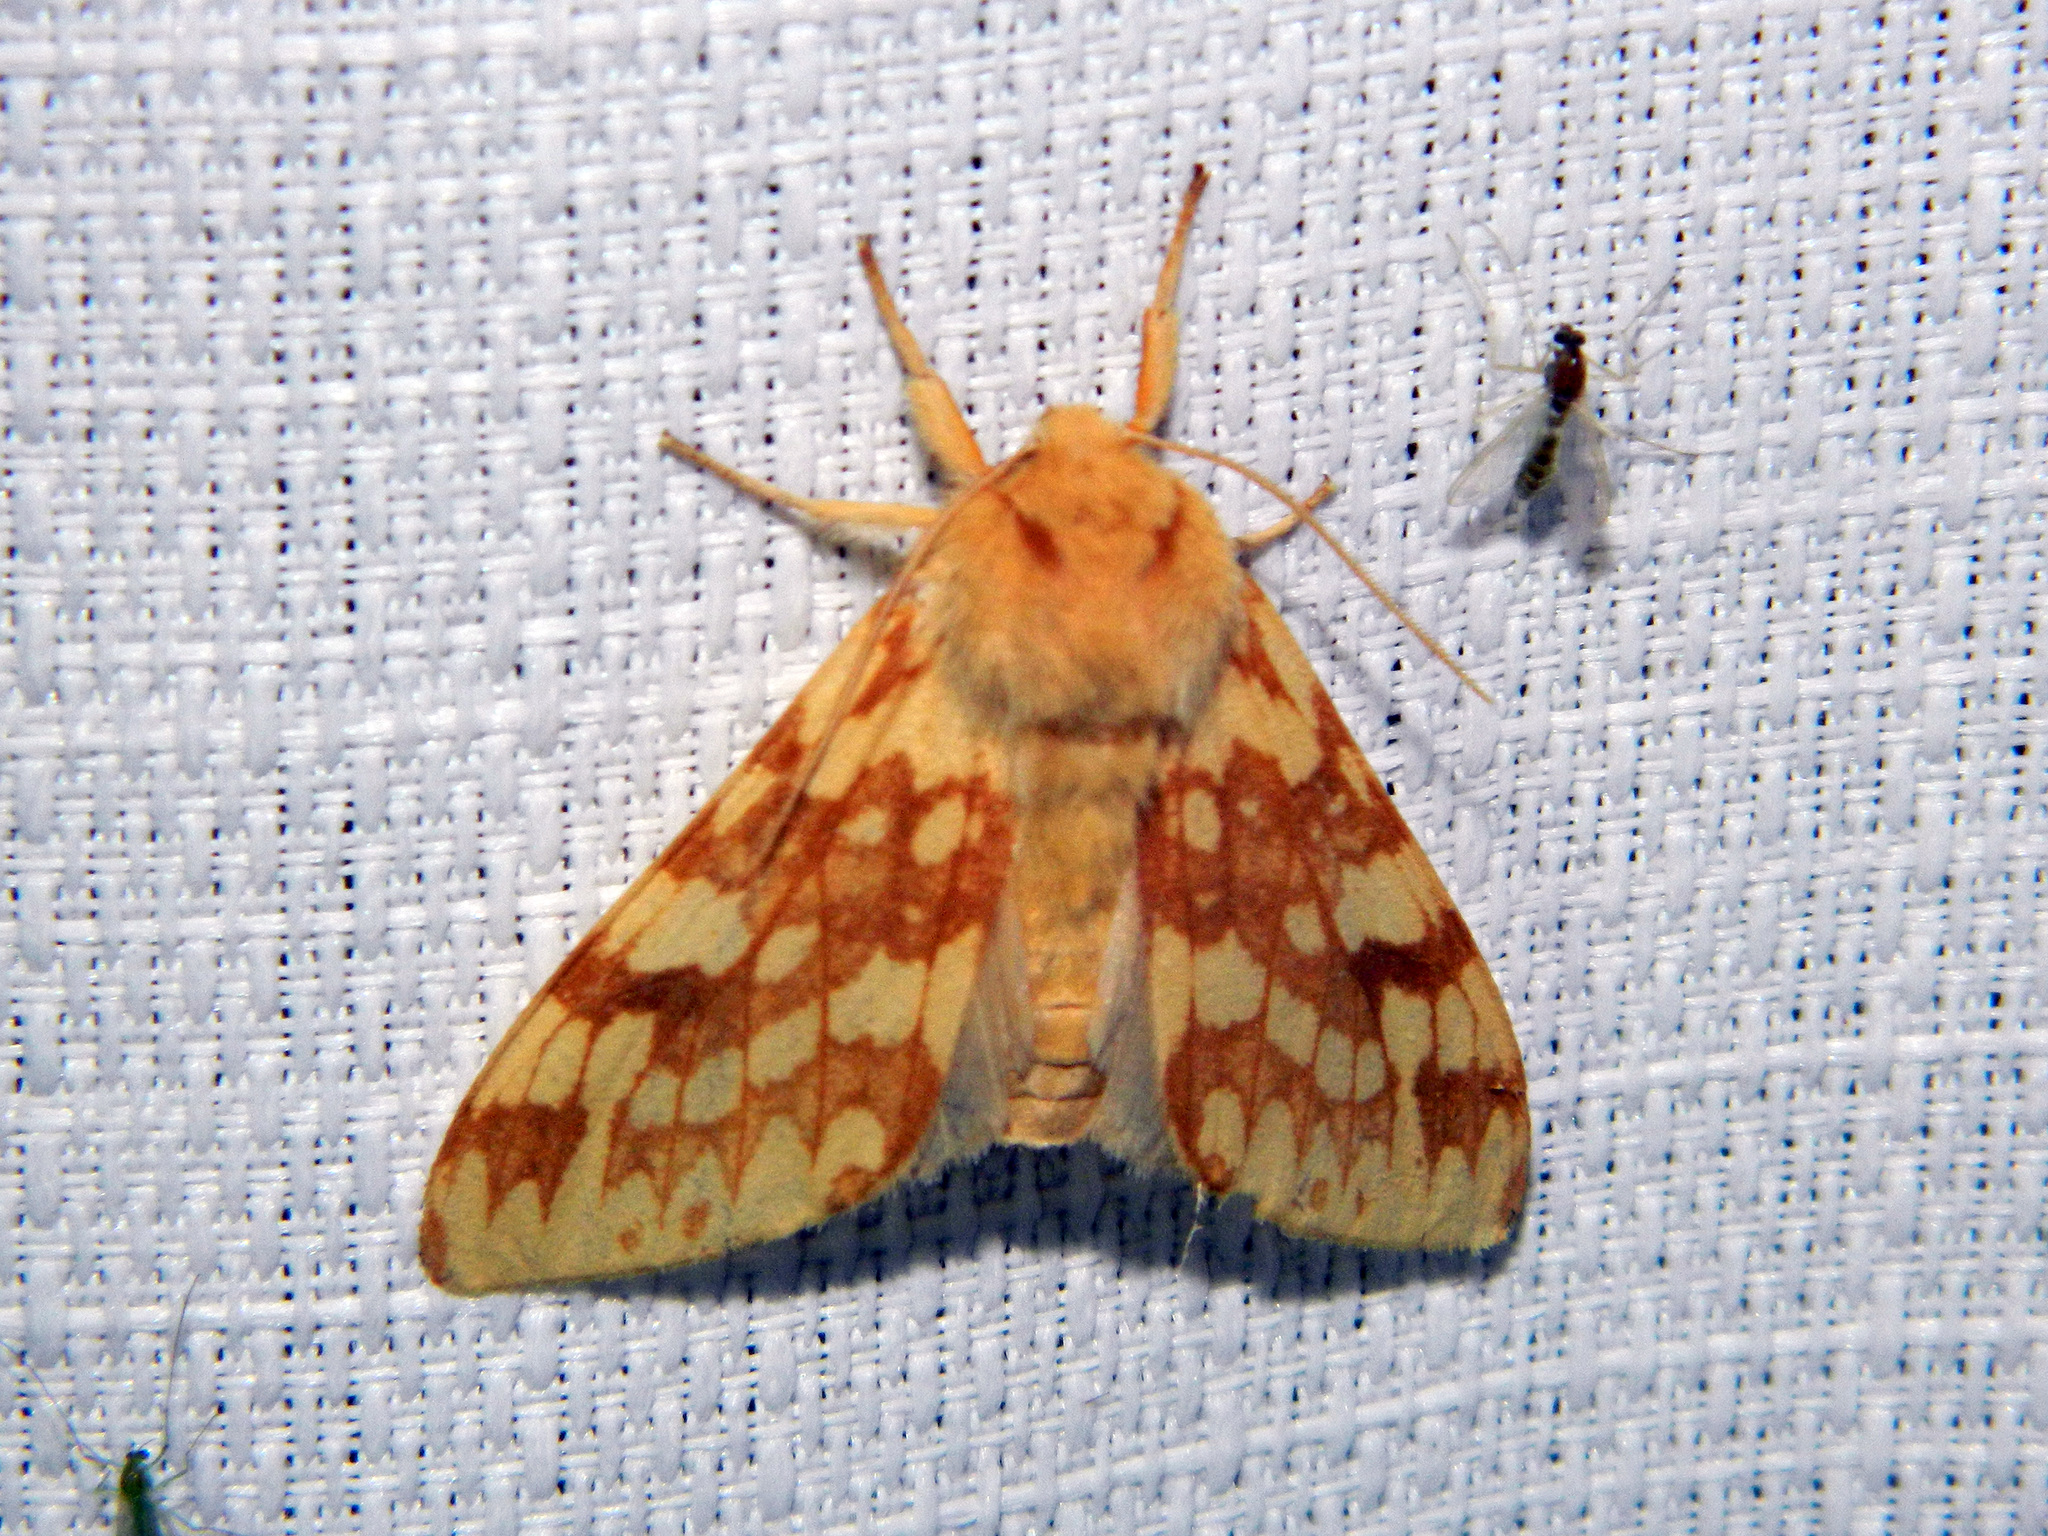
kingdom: Animalia
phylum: Arthropoda
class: Insecta
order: Lepidoptera
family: Erebidae
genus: Lophocampa
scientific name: Lophocampa maculata
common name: Spotted tussock moth
